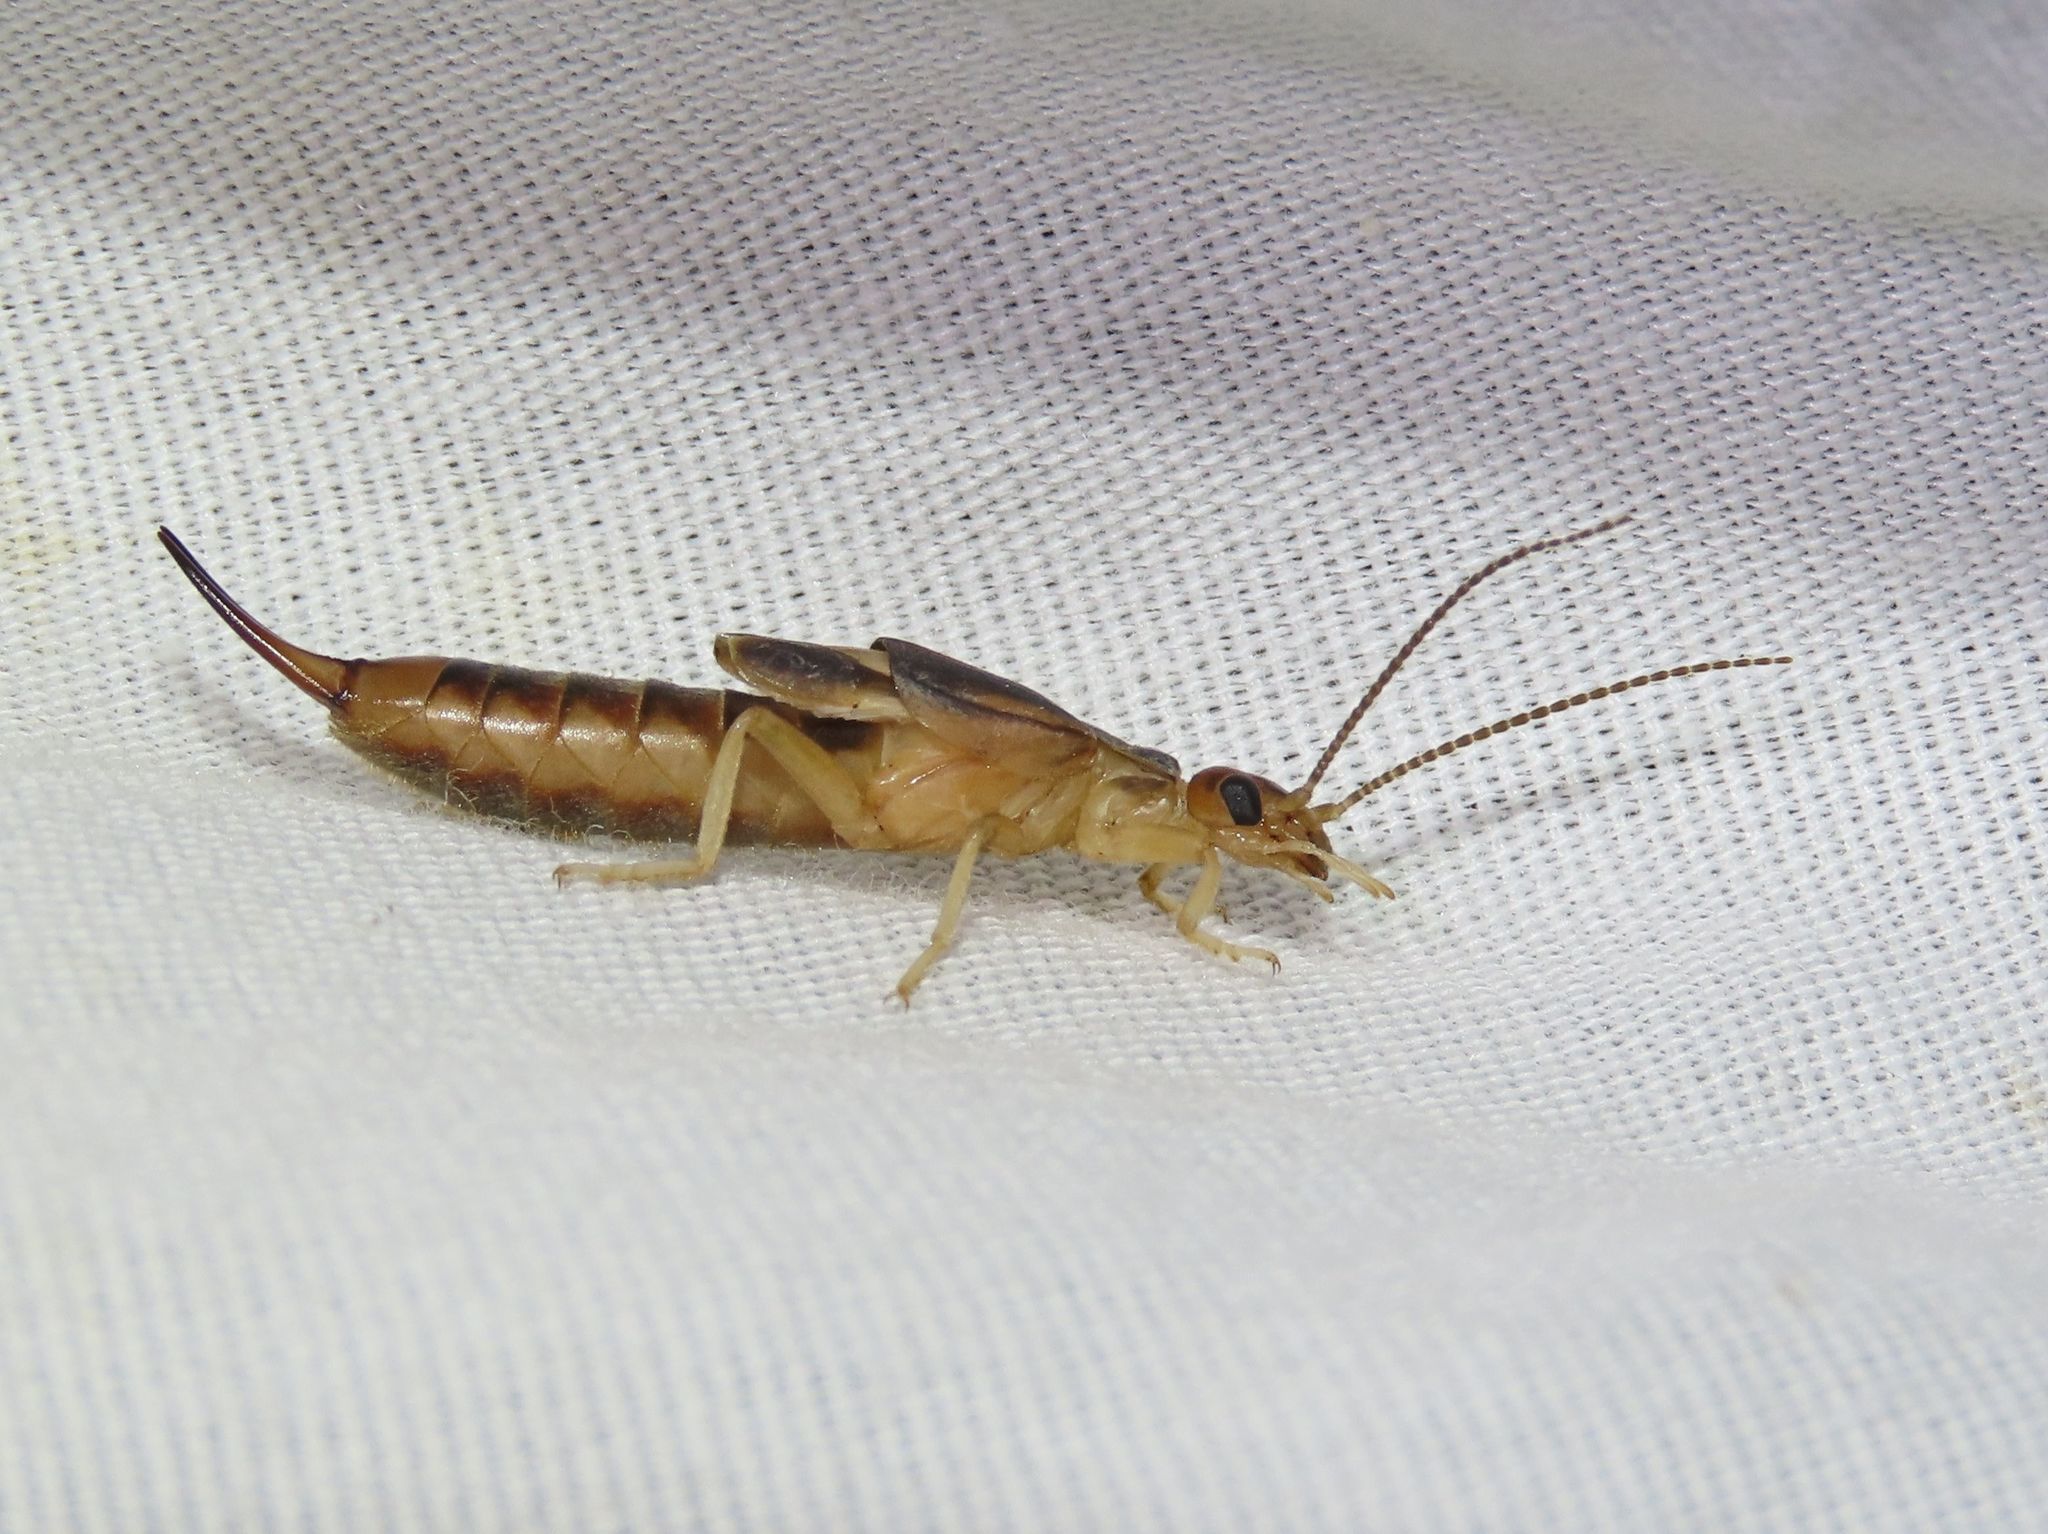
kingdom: Animalia
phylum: Arthropoda
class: Insecta
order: Dermaptera
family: Labiduridae
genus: Labidura
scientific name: Labidura riparia
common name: Striped earwig
